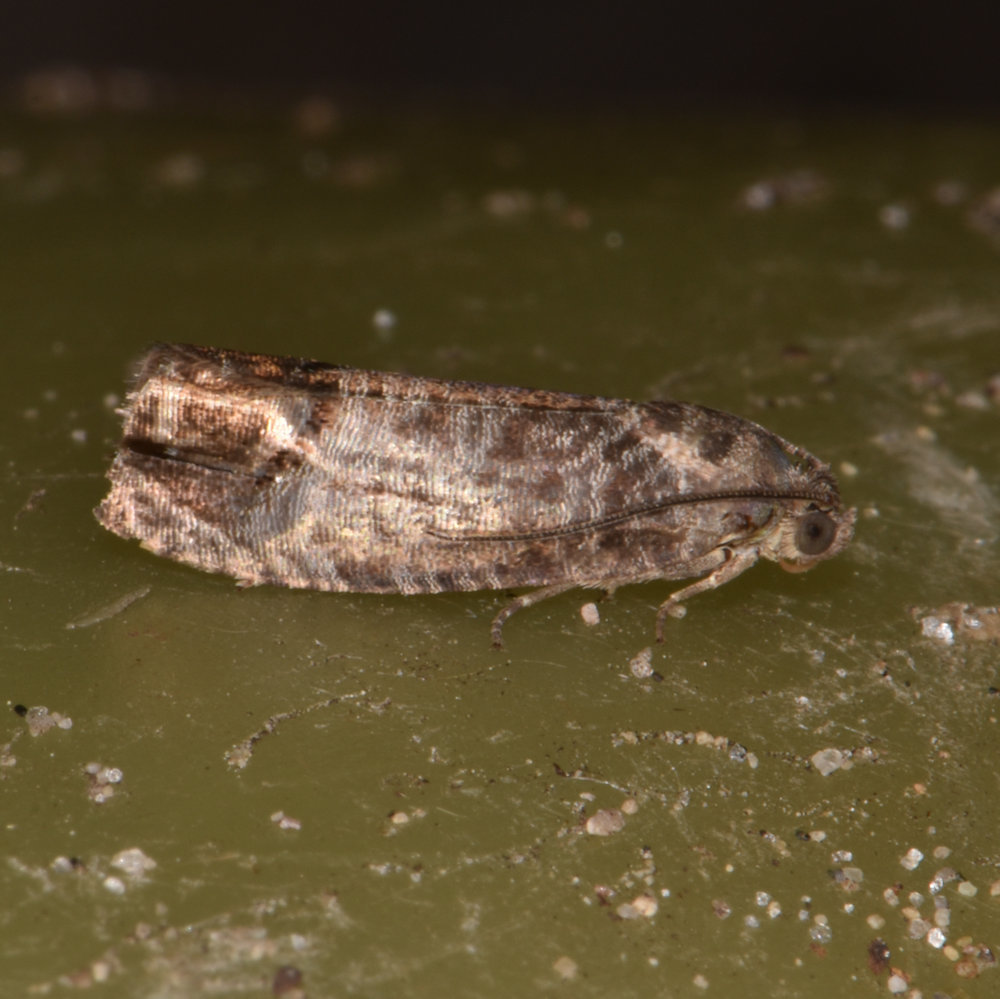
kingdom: Animalia
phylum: Arthropoda
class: Insecta
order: Lepidoptera
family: Tortricidae
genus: Cydia
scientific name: Cydia pomonella
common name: Codling moth
